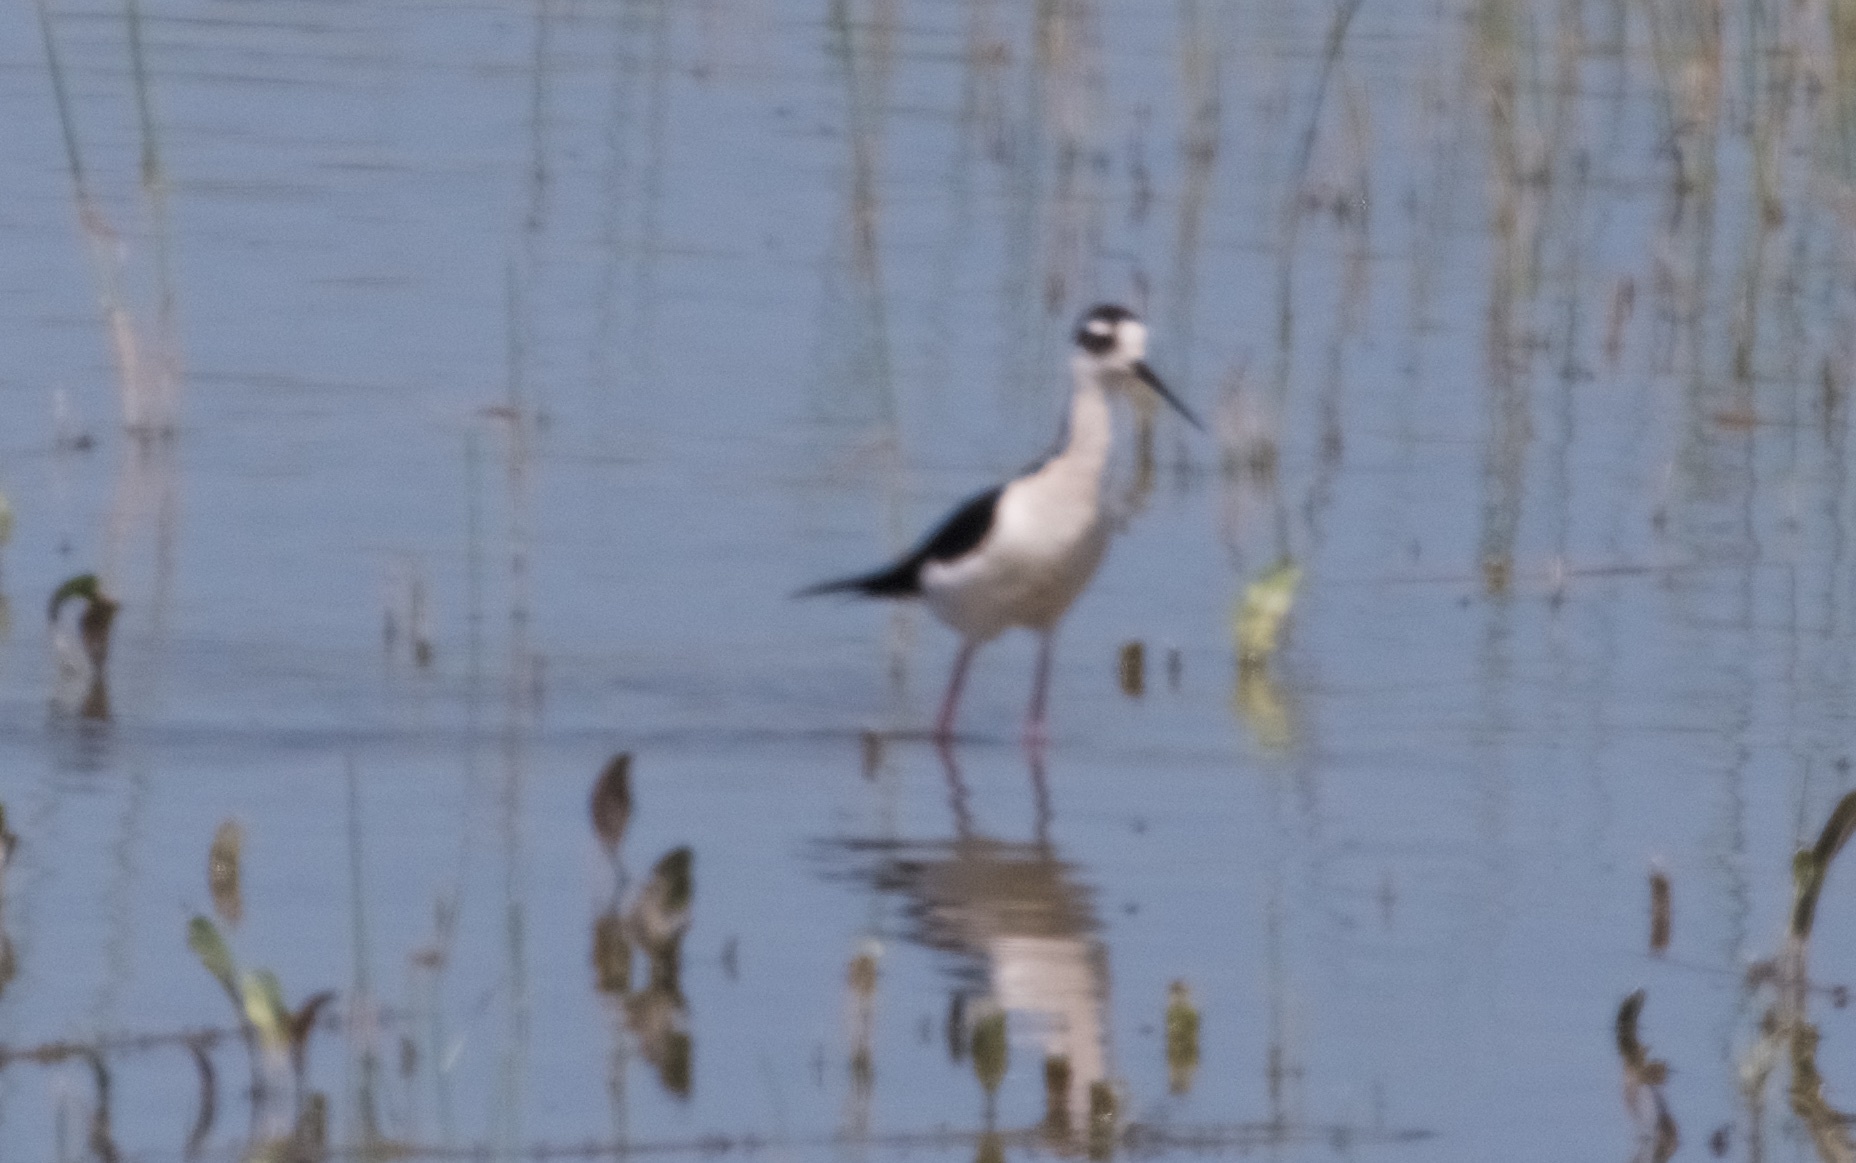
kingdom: Animalia
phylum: Chordata
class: Aves
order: Charadriiformes
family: Recurvirostridae
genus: Himantopus
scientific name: Himantopus mexicanus
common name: Black-necked stilt
